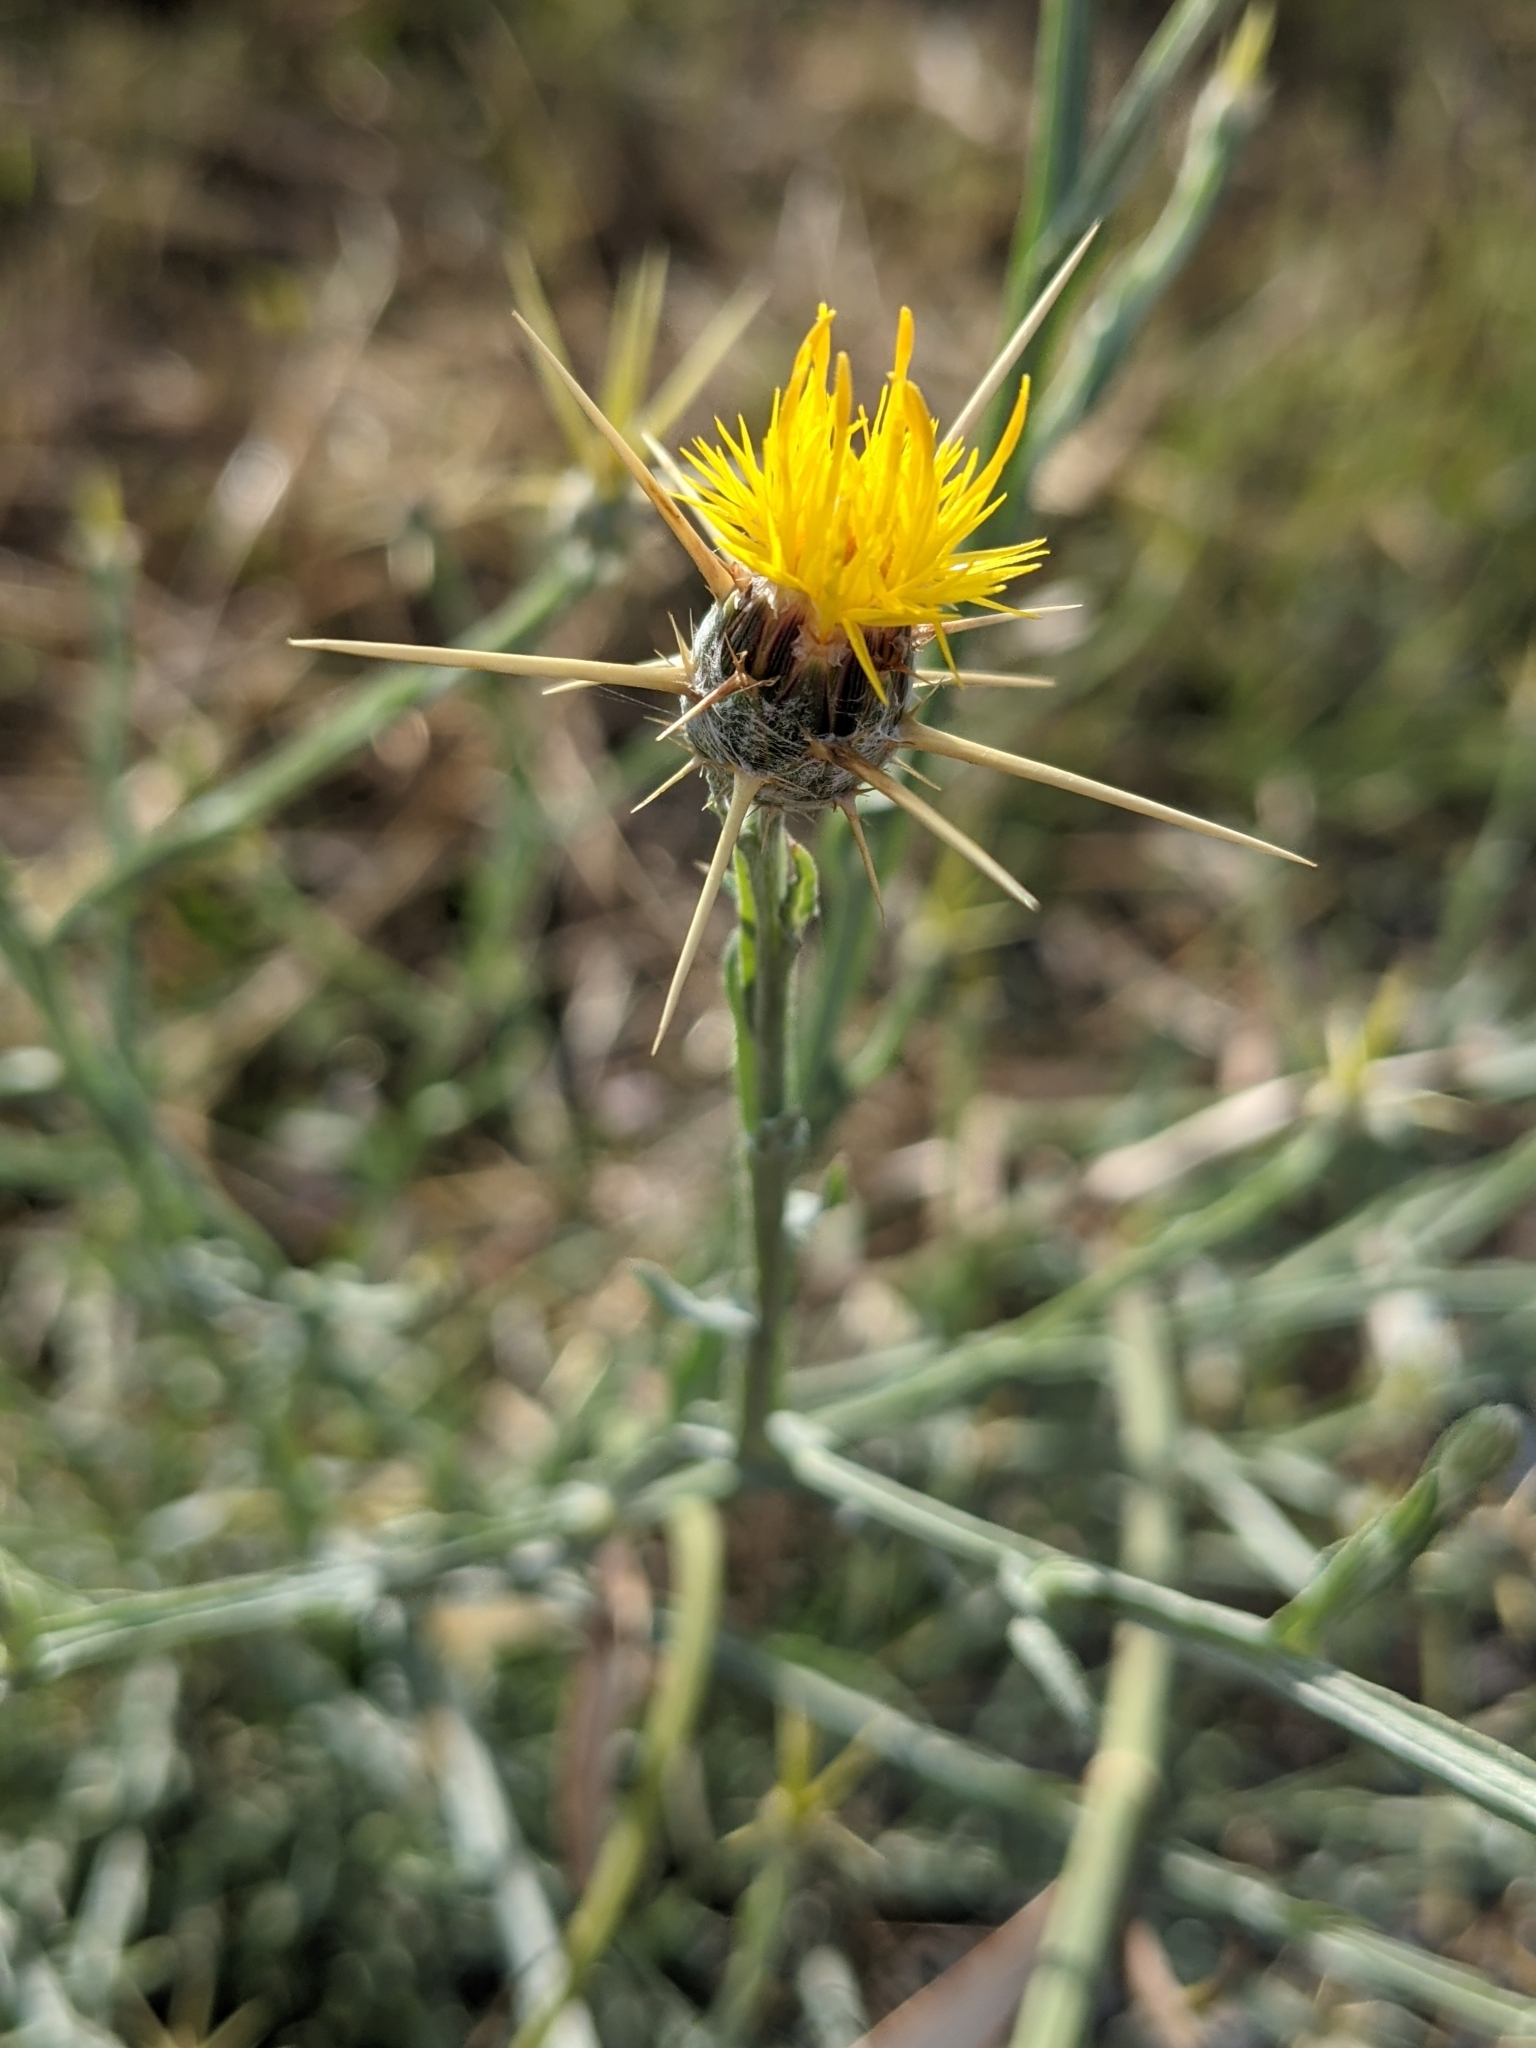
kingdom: Plantae
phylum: Tracheophyta
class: Magnoliopsida
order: Asterales
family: Asteraceae
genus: Centaurea
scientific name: Centaurea solstitialis
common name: Yellow star-thistle
